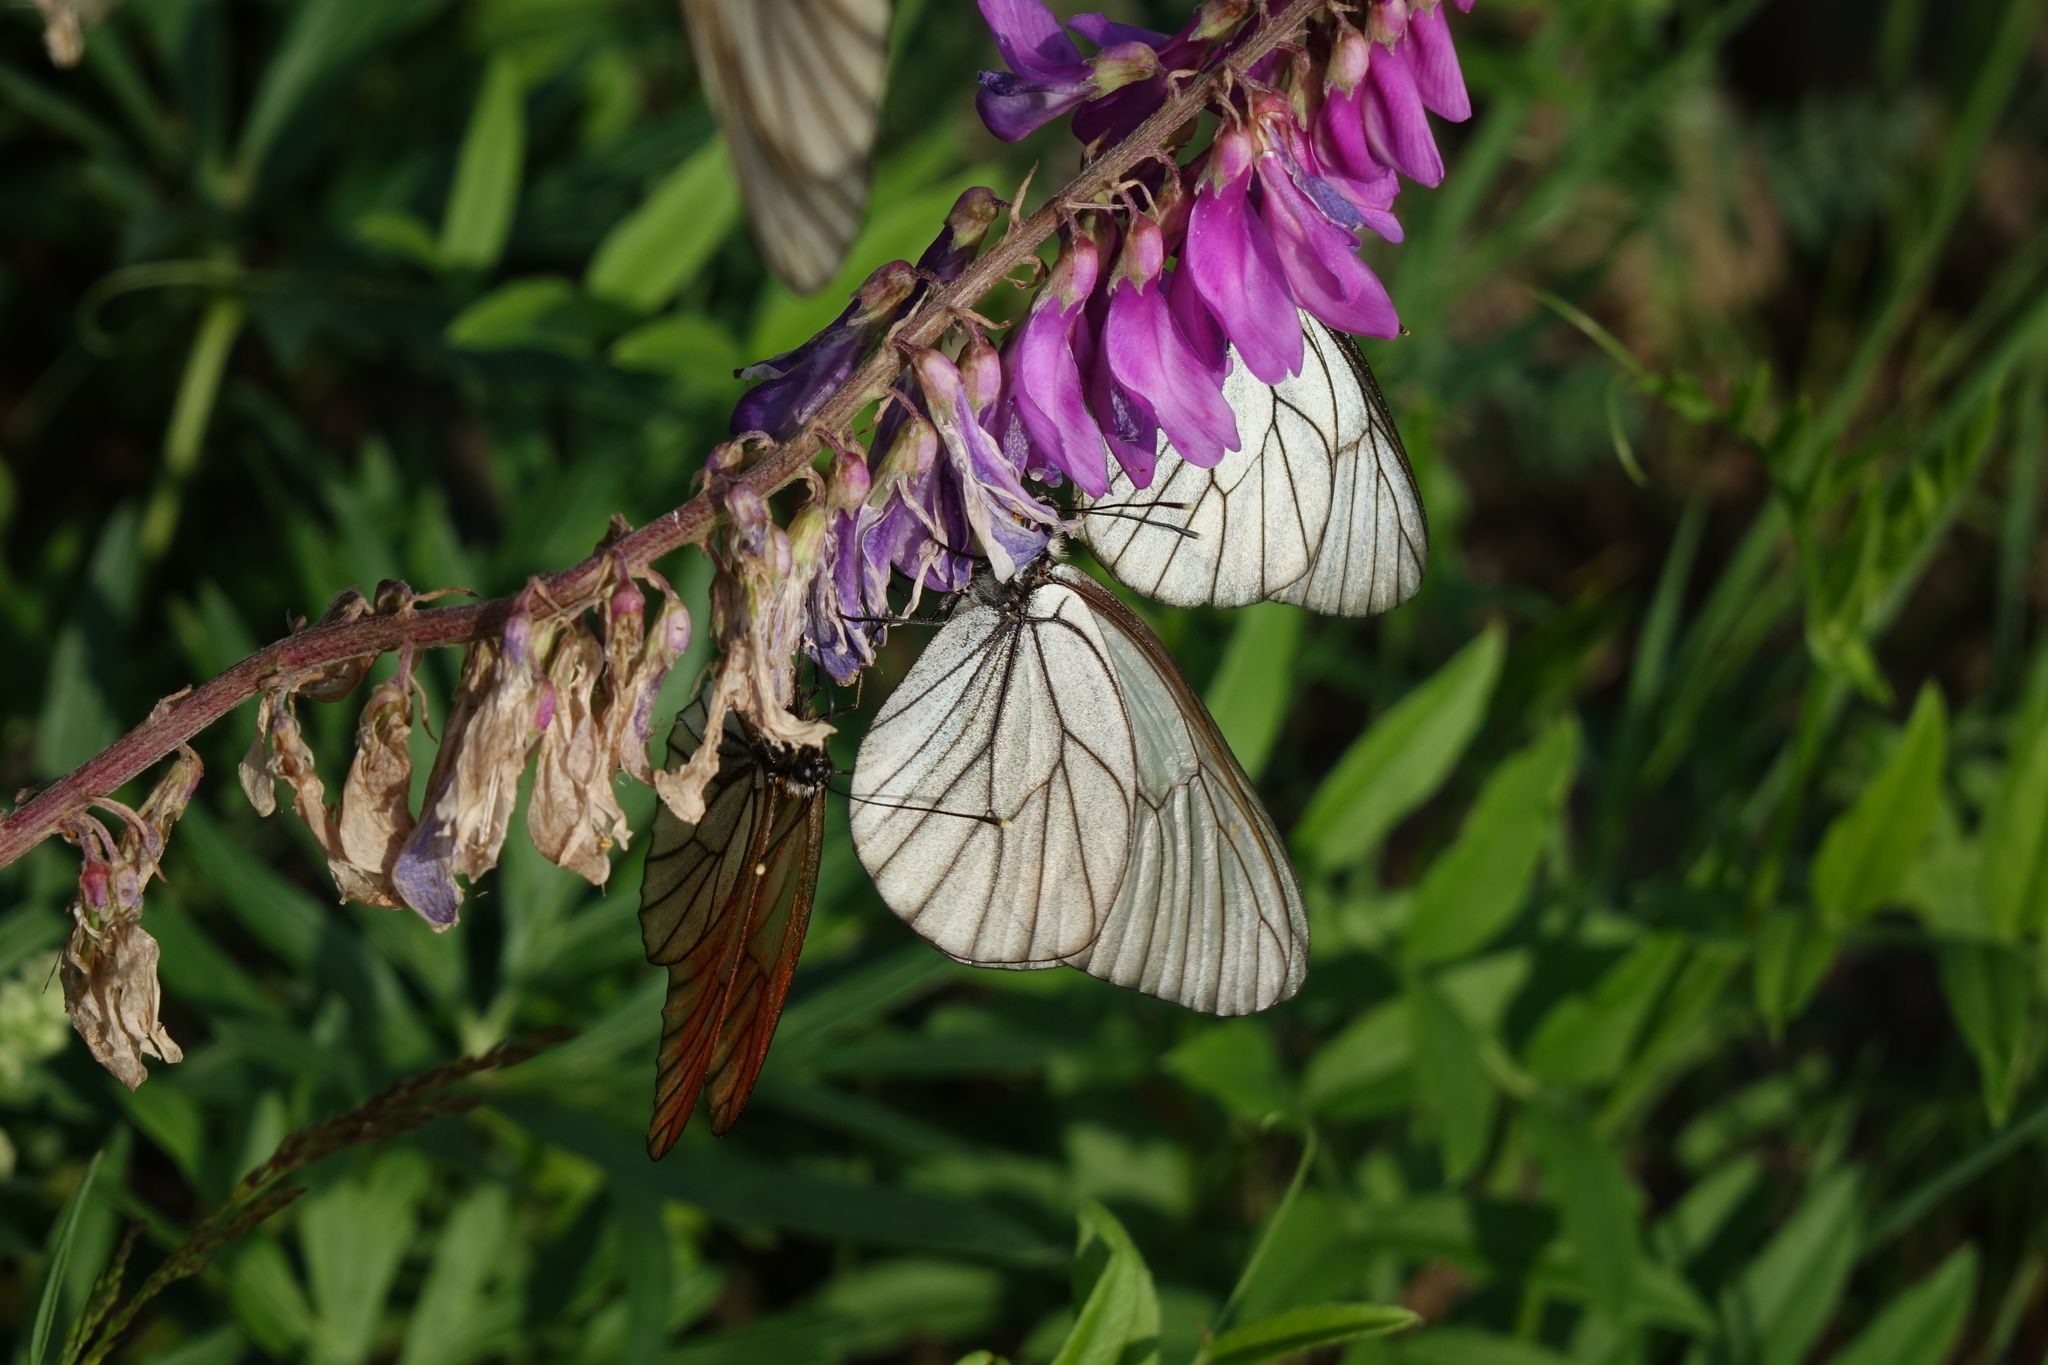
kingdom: Animalia
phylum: Arthropoda
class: Insecta
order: Lepidoptera
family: Pieridae
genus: Aporia
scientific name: Aporia crataegi
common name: Black-veined white
